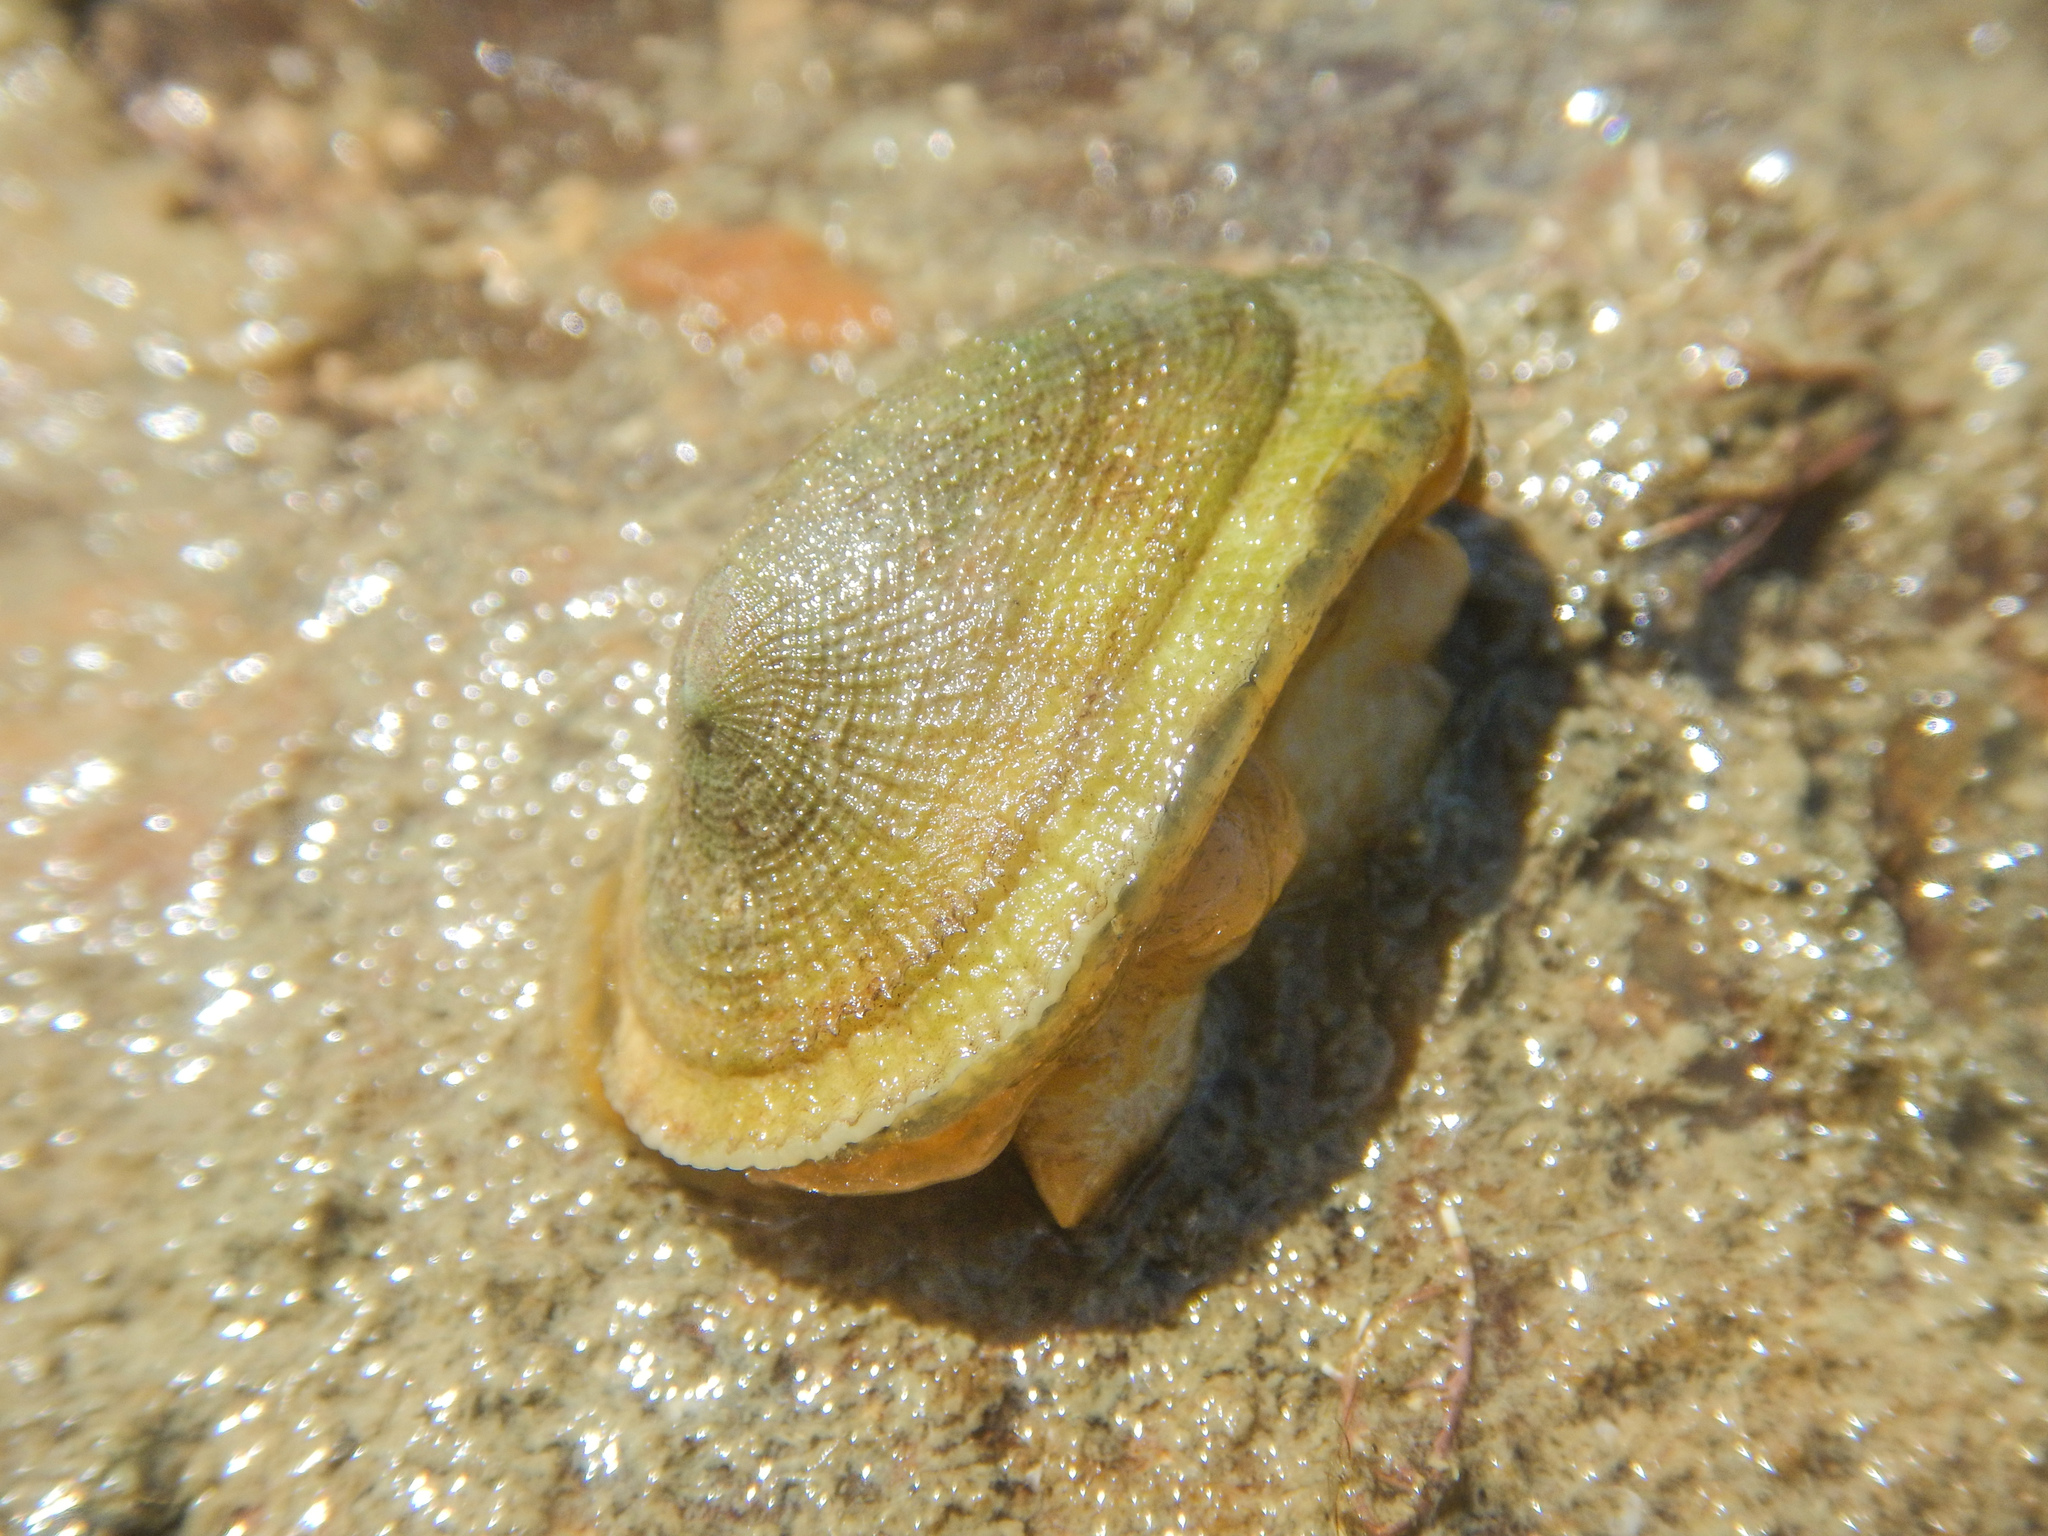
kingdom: Animalia
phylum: Mollusca
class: Gastropoda
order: Lepetellida
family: Fissurellidae
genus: Tugali
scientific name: Tugali elegans
